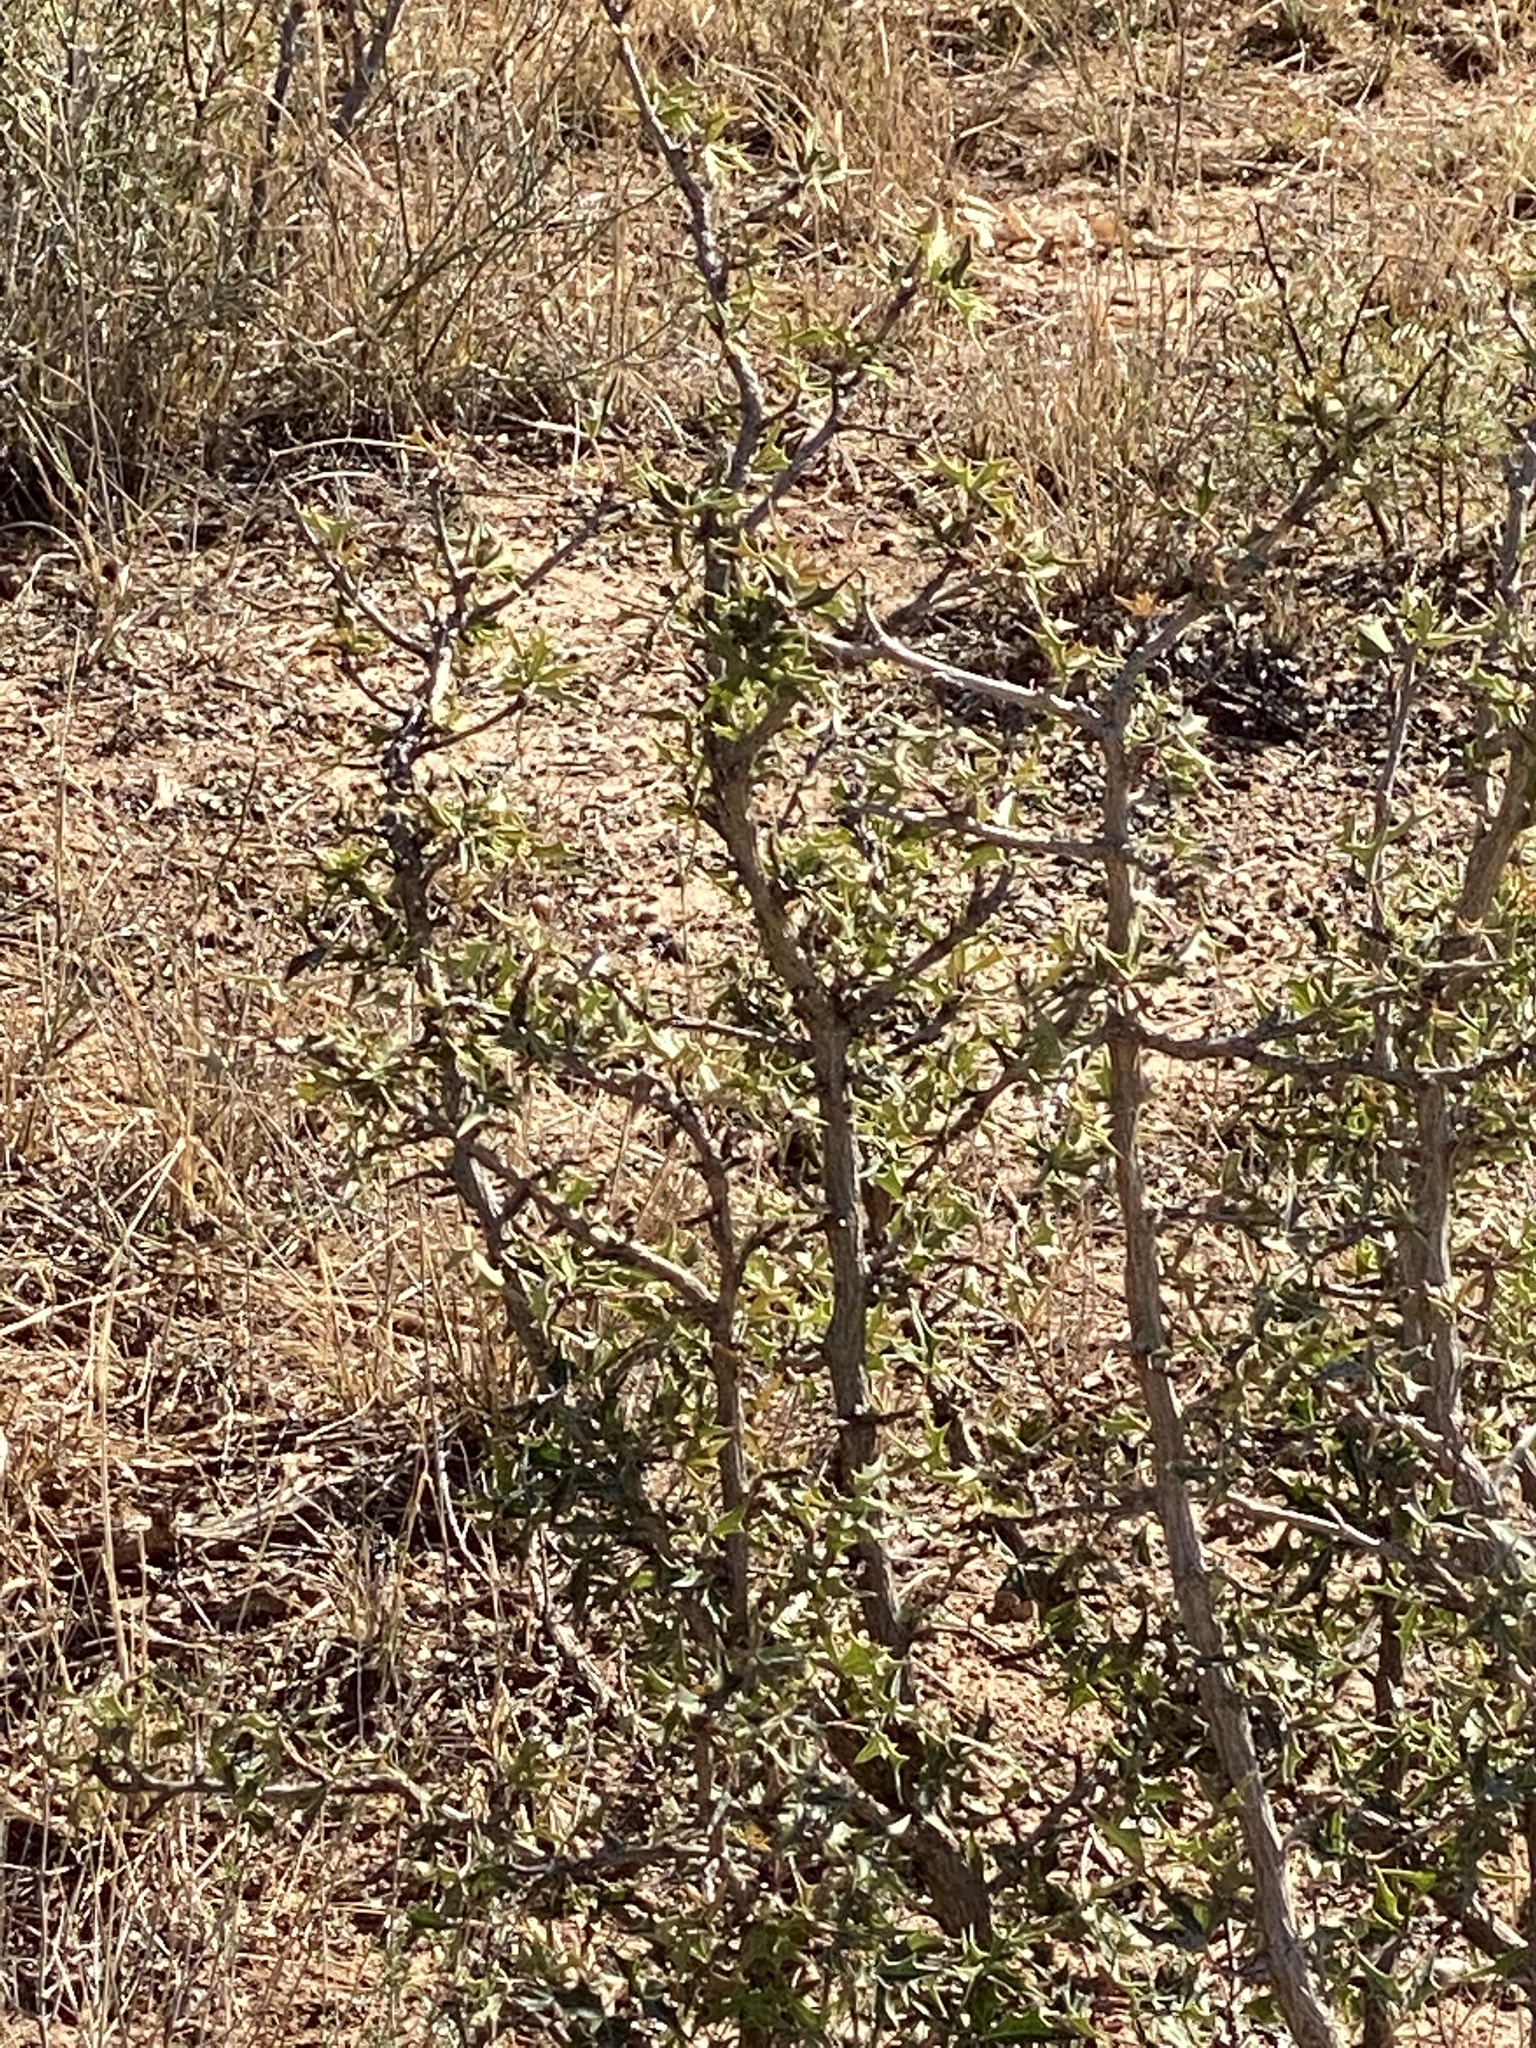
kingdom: Plantae
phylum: Tracheophyta
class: Magnoliopsida
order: Ranunculales
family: Berberidaceae
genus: Alloberberis
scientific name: Alloberberis trifoliolata
